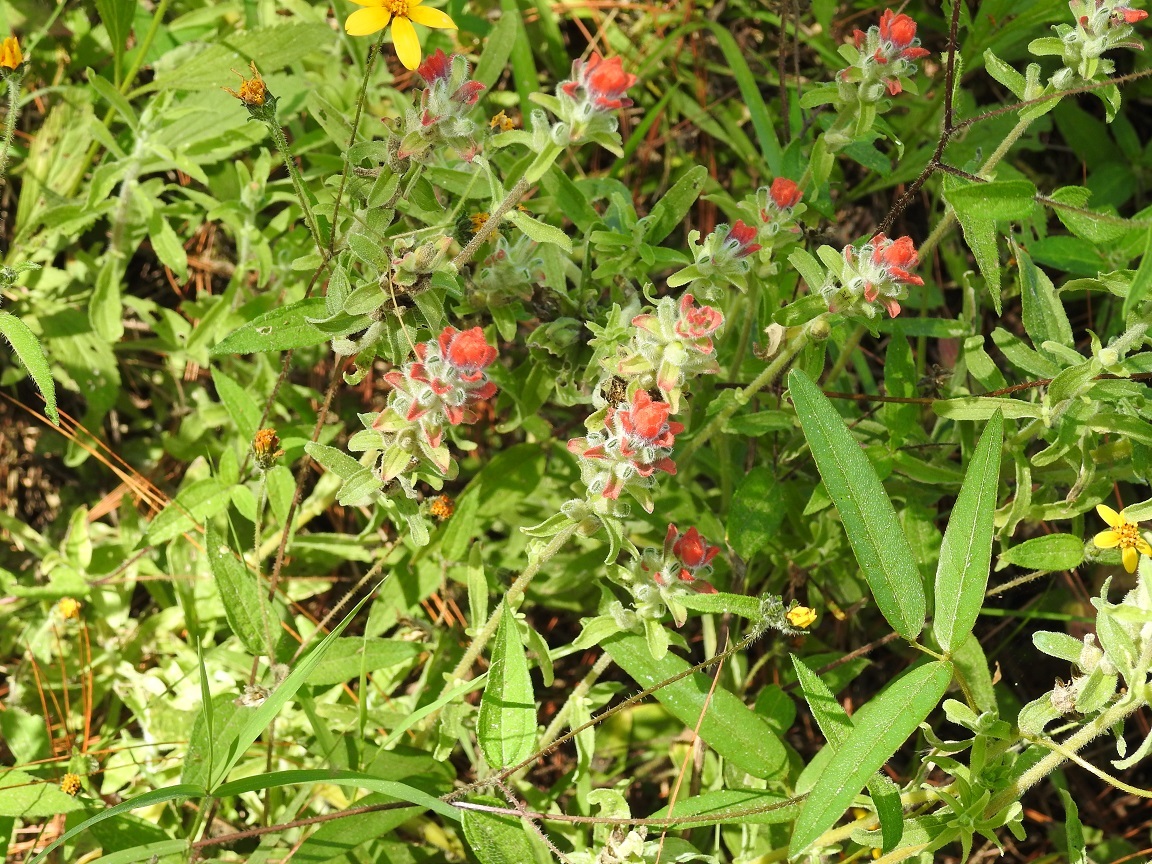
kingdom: Plantae
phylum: Tracheophyta
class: Magnoliopsida
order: Lamiales
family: Orobanchaceae
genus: Castilleja
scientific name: Castilleja arvensis
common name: Indian paintbrush
